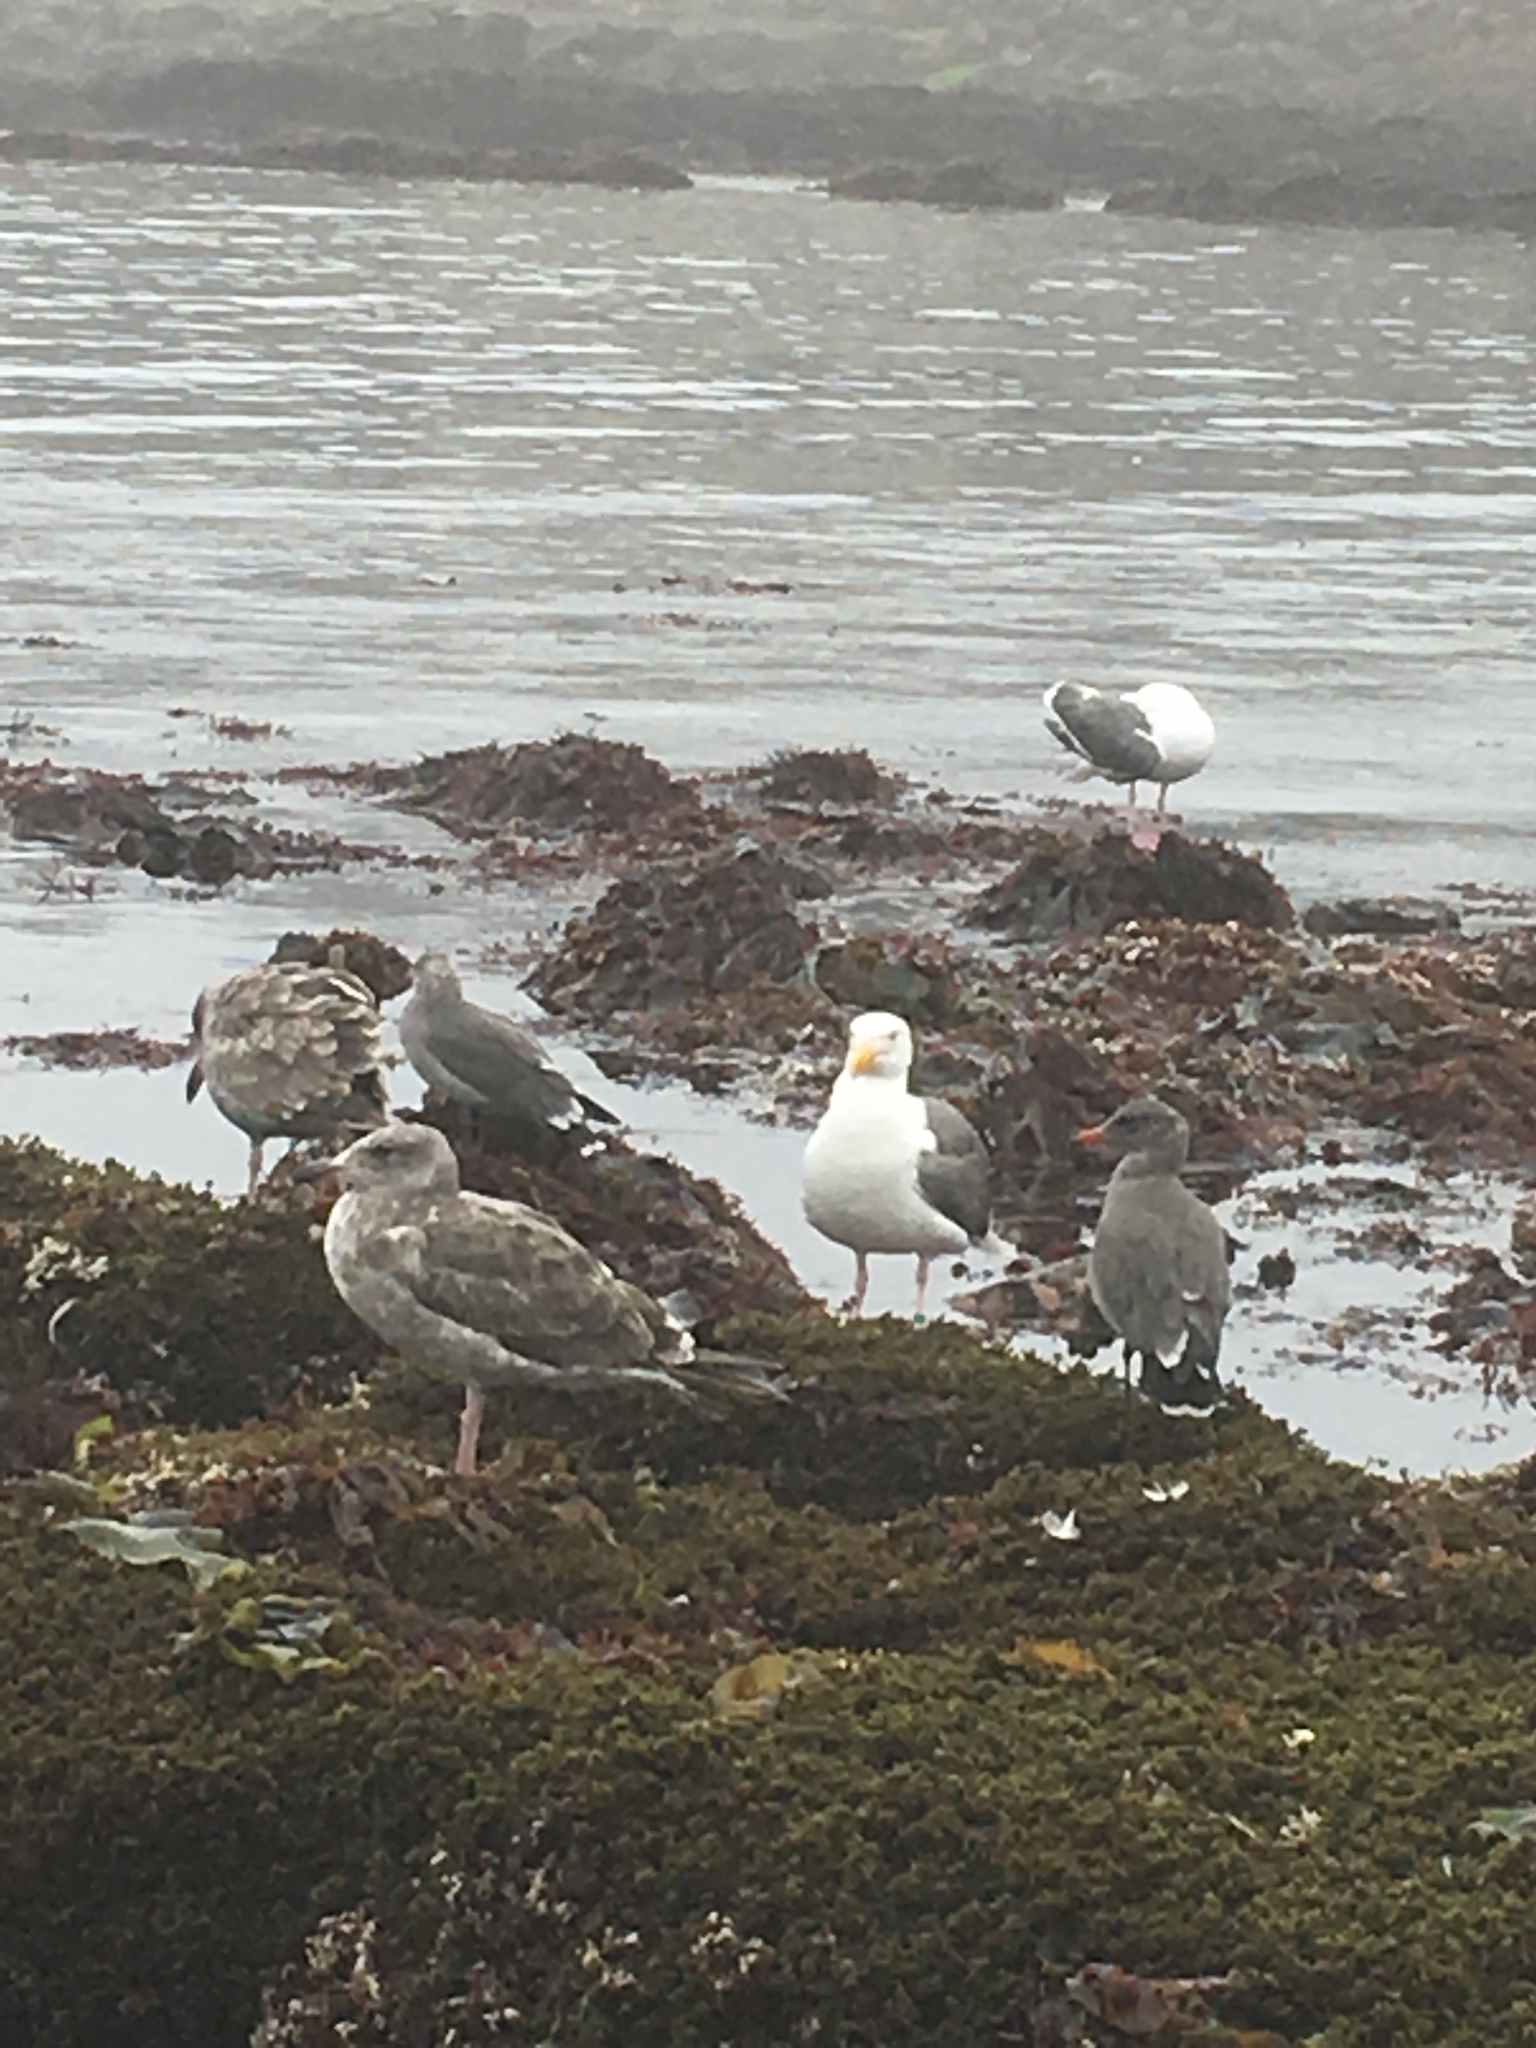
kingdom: Animalia
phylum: Chordata
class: Aves
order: Charadriiformes
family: Laridae
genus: Larus
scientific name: Larus occidentalis
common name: Western gull
